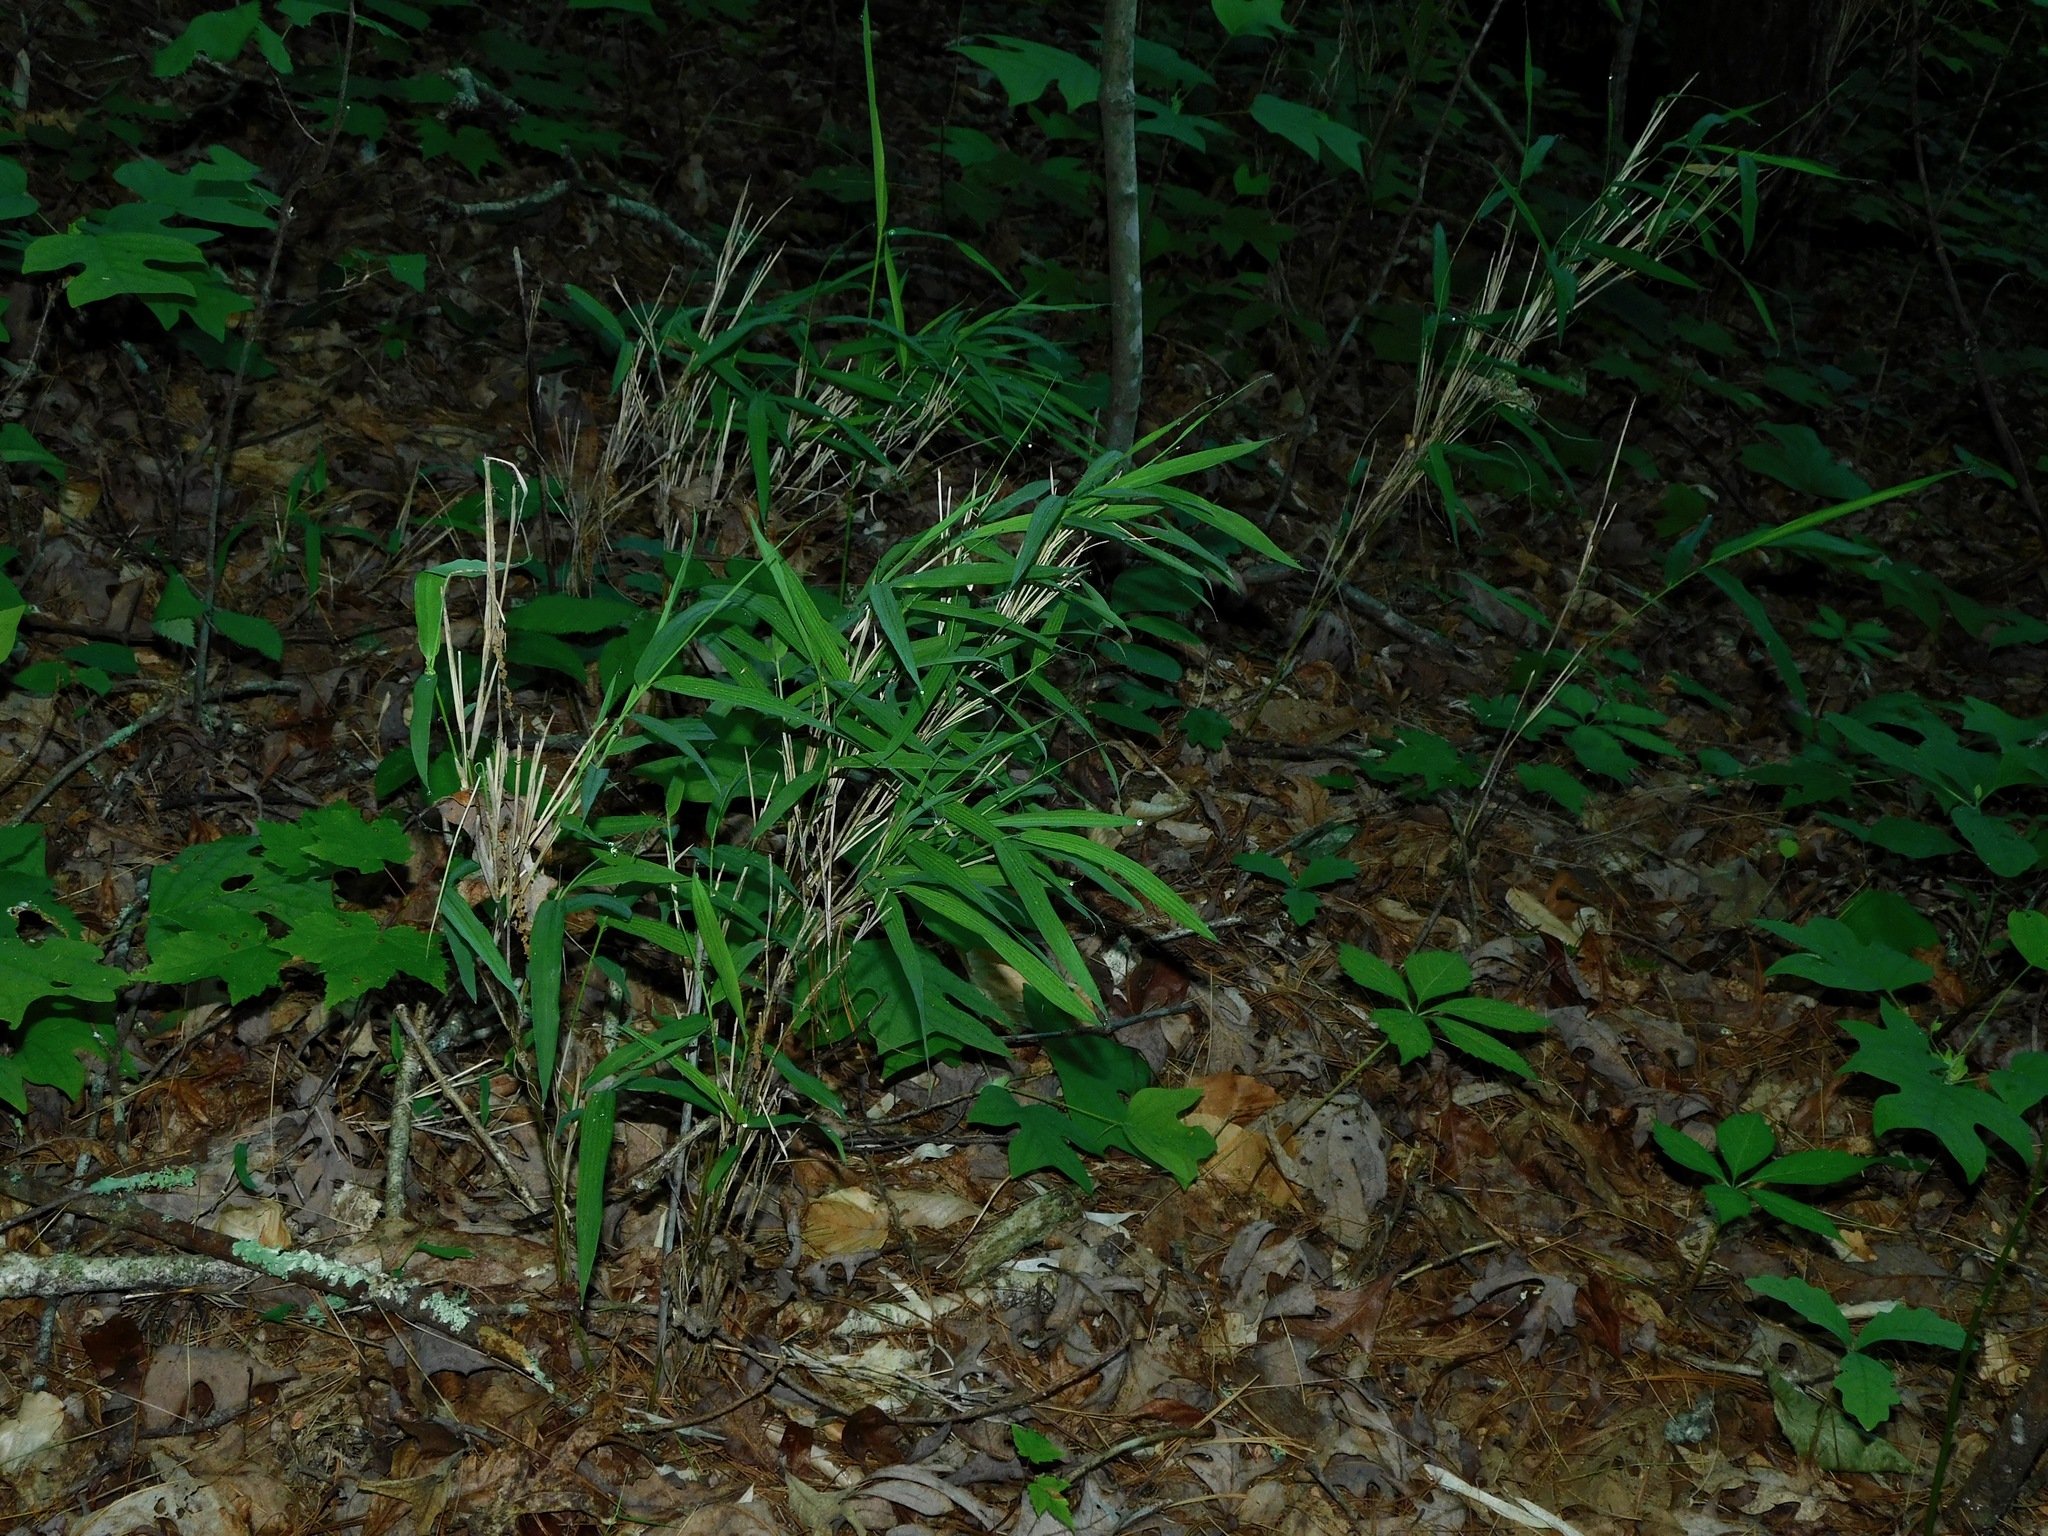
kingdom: Plantae
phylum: Tracheophyta
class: Liliopsida
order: Poales
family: Poaceae
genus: Arundinaria
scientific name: Arundinaria appalachiana
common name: Hill cane
